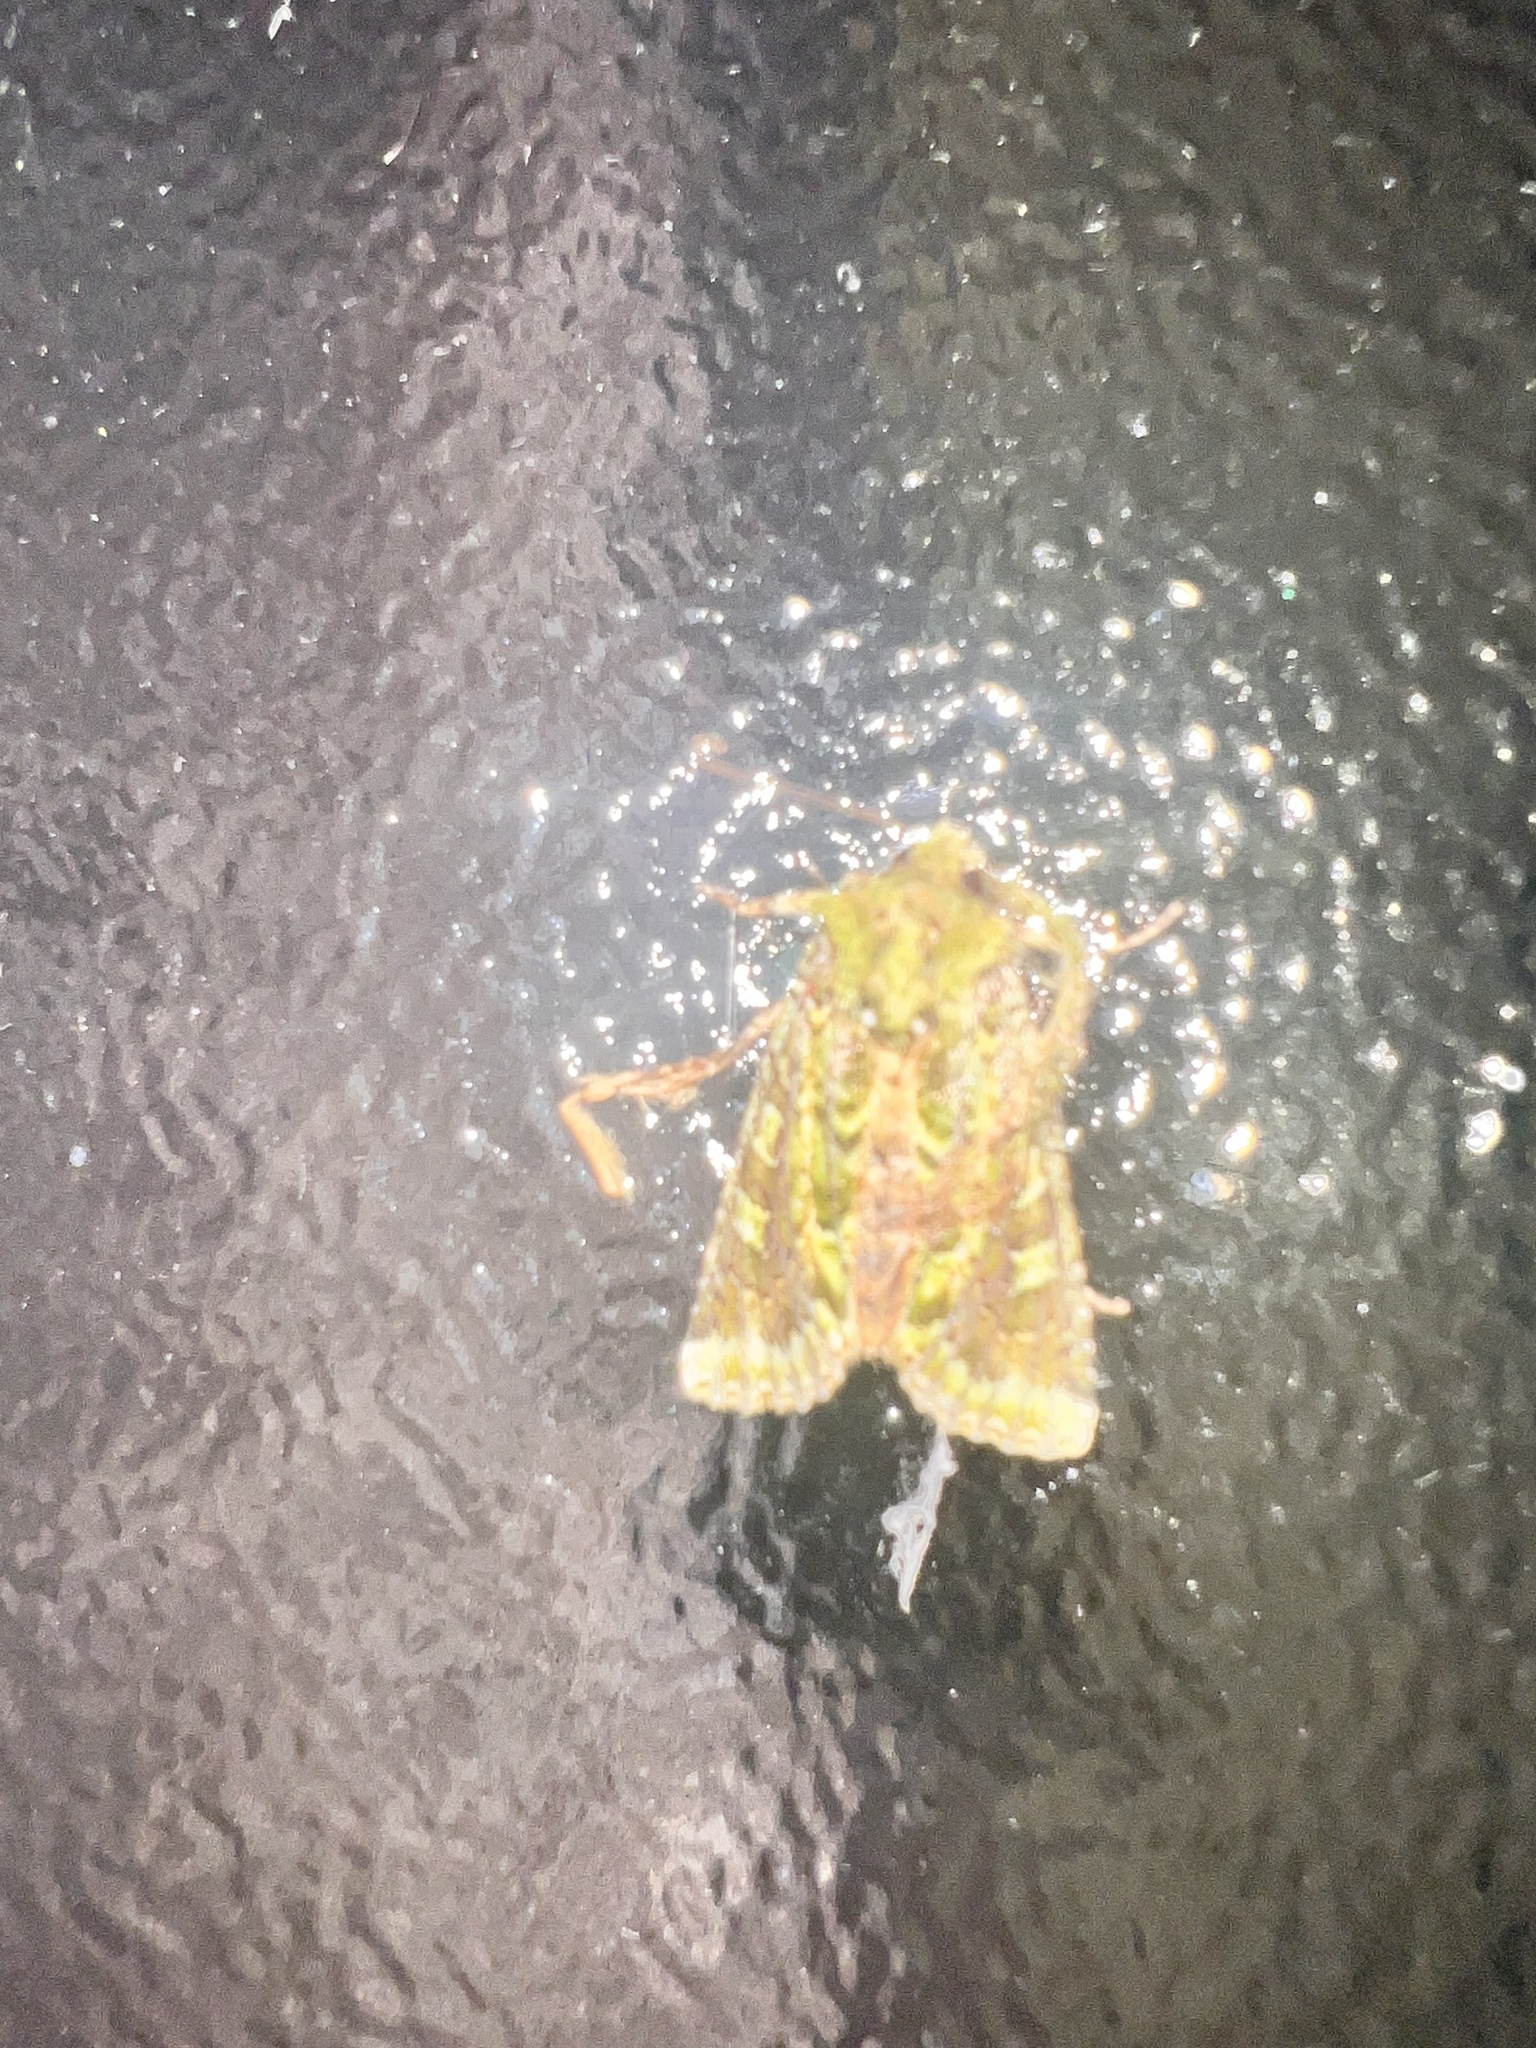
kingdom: Animalia
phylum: Arthropoda
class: Insecta
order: Lepidoptera
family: Noctuidae
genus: Feredayia
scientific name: Feredayia grammosa
